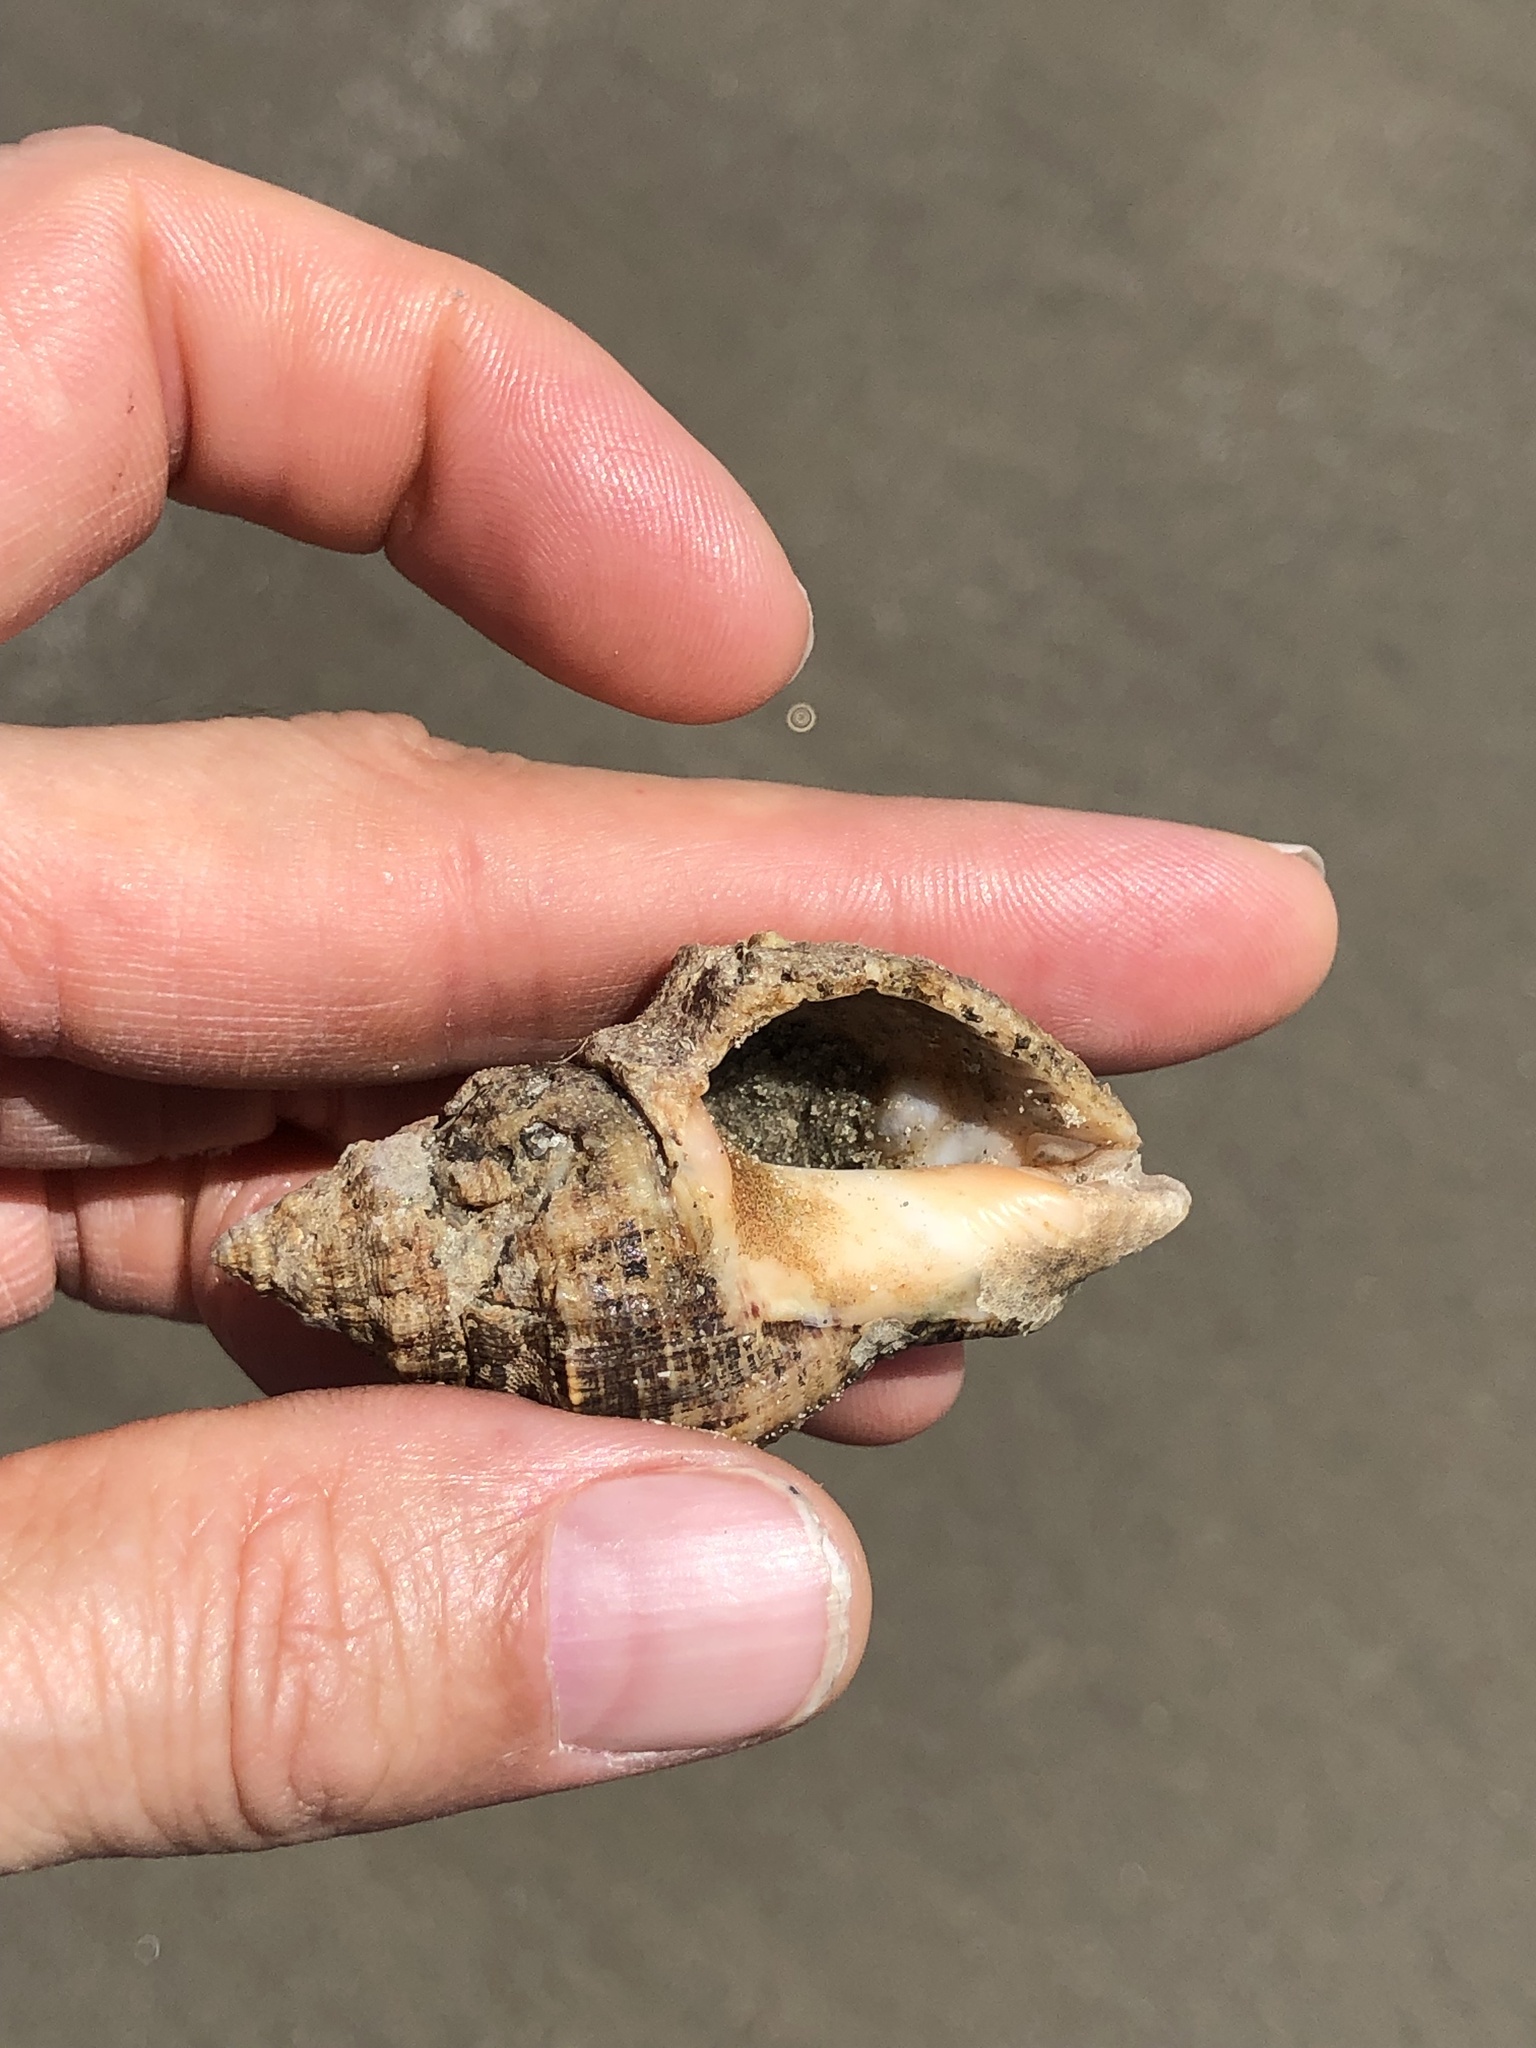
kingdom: Animalia
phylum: Arthropoda
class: Malacostraca
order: Decapoda
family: Diogenidae
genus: Clibanarius
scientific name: Clibanarius vittatus
